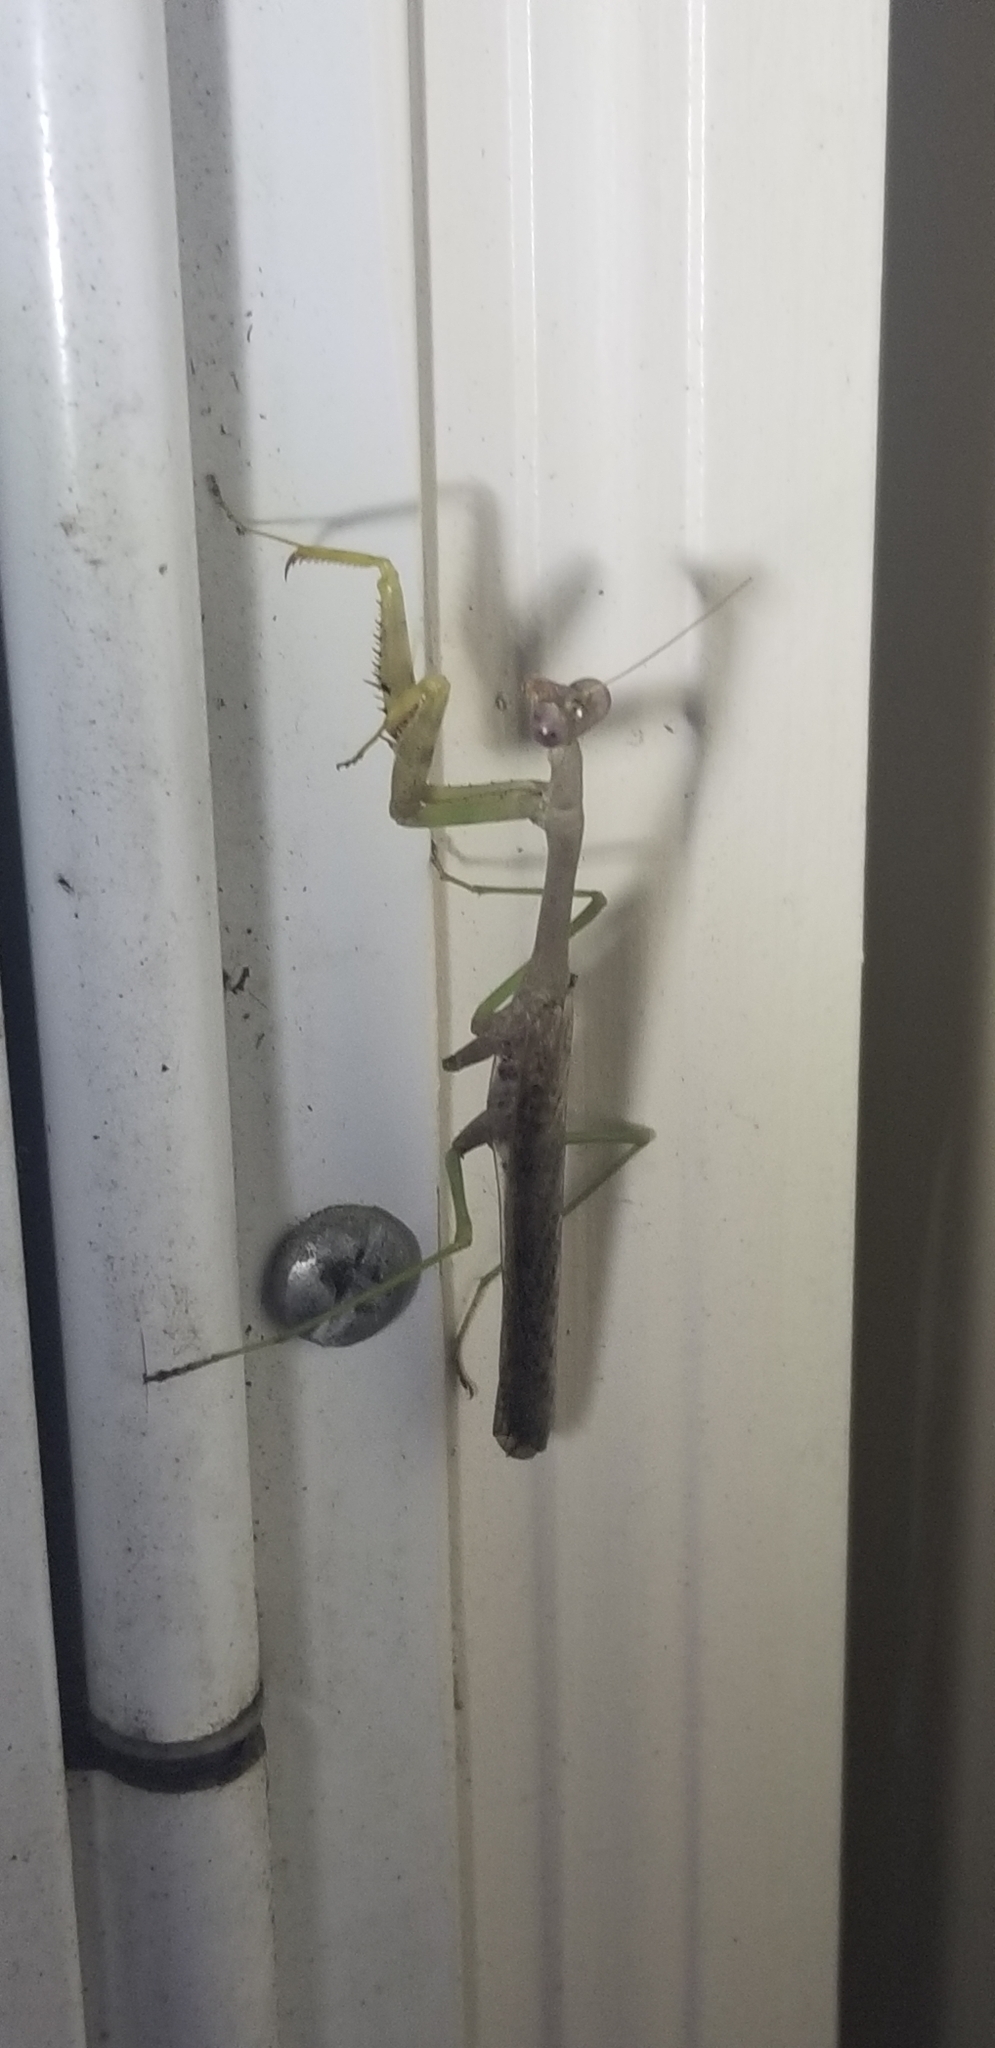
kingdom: Animalia
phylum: Arthropoda
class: Insecta
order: Mantodea
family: Mantidae
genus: Stagmomantis
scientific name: Stagmomantis carolina
